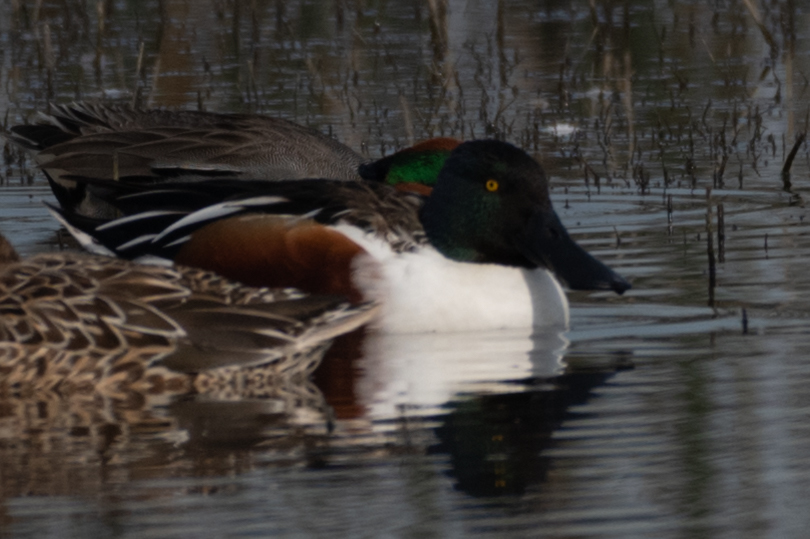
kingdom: Animalia
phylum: Chordata
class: Aves
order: Anseriformes
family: Anatidae
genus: Spatula
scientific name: Spatula clypeata
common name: Northern shoveler
